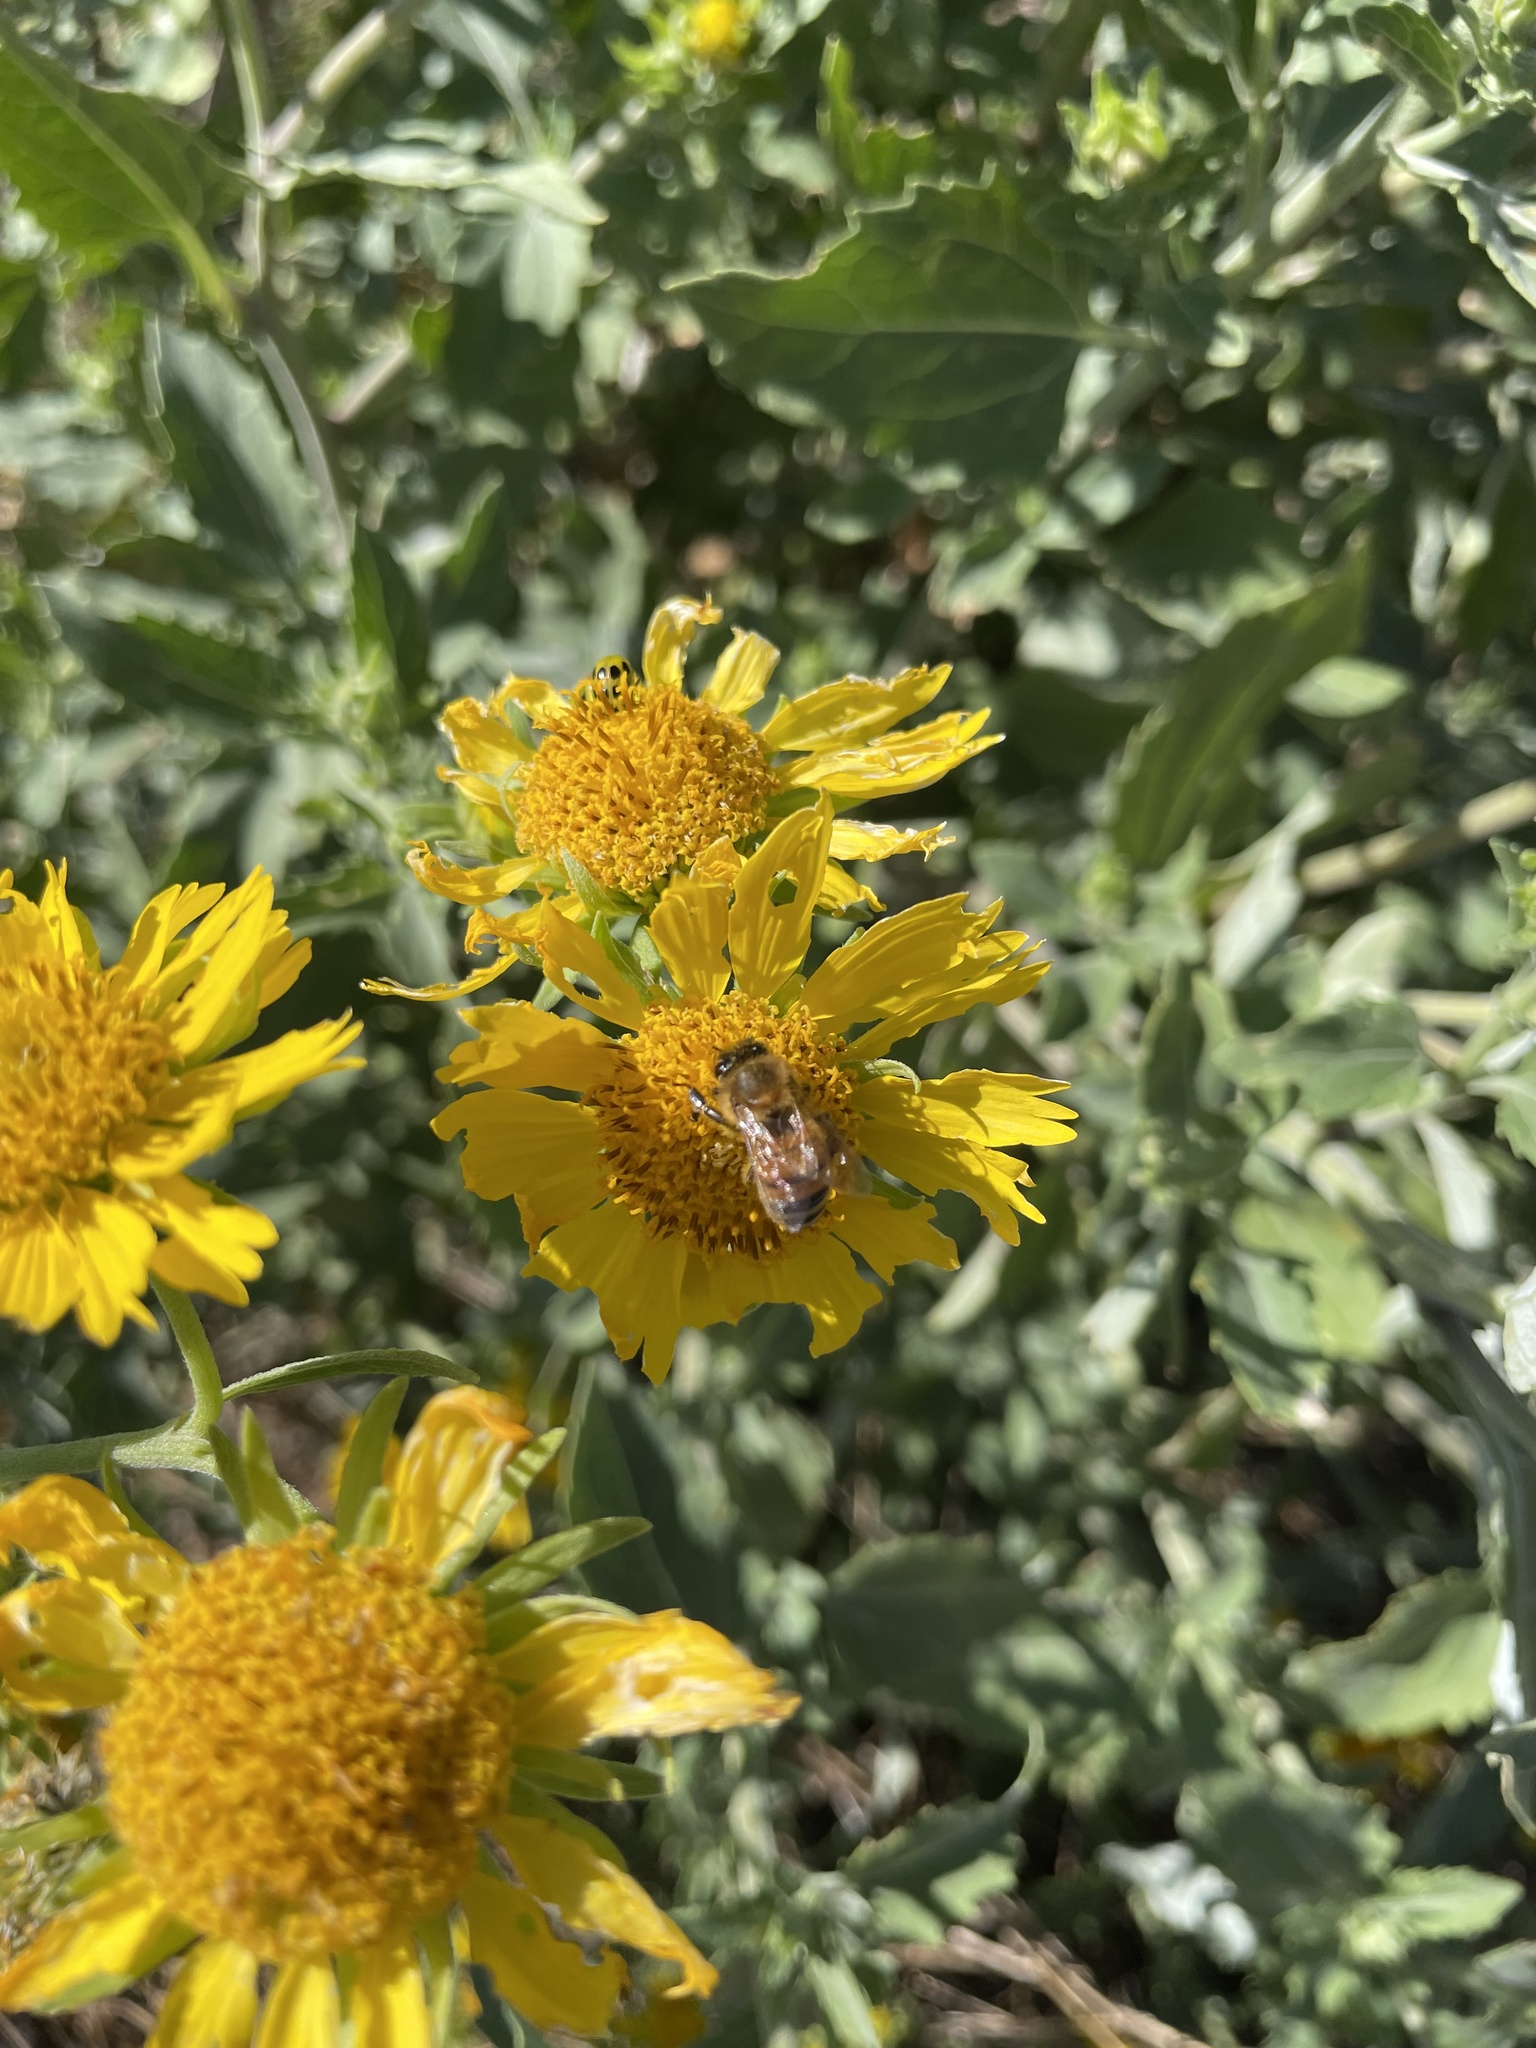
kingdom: Animalia
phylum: Arthropoda
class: Insecta
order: Hymenoptera
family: Apidae
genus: Apis
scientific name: Apis mellifera
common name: Honey bee
